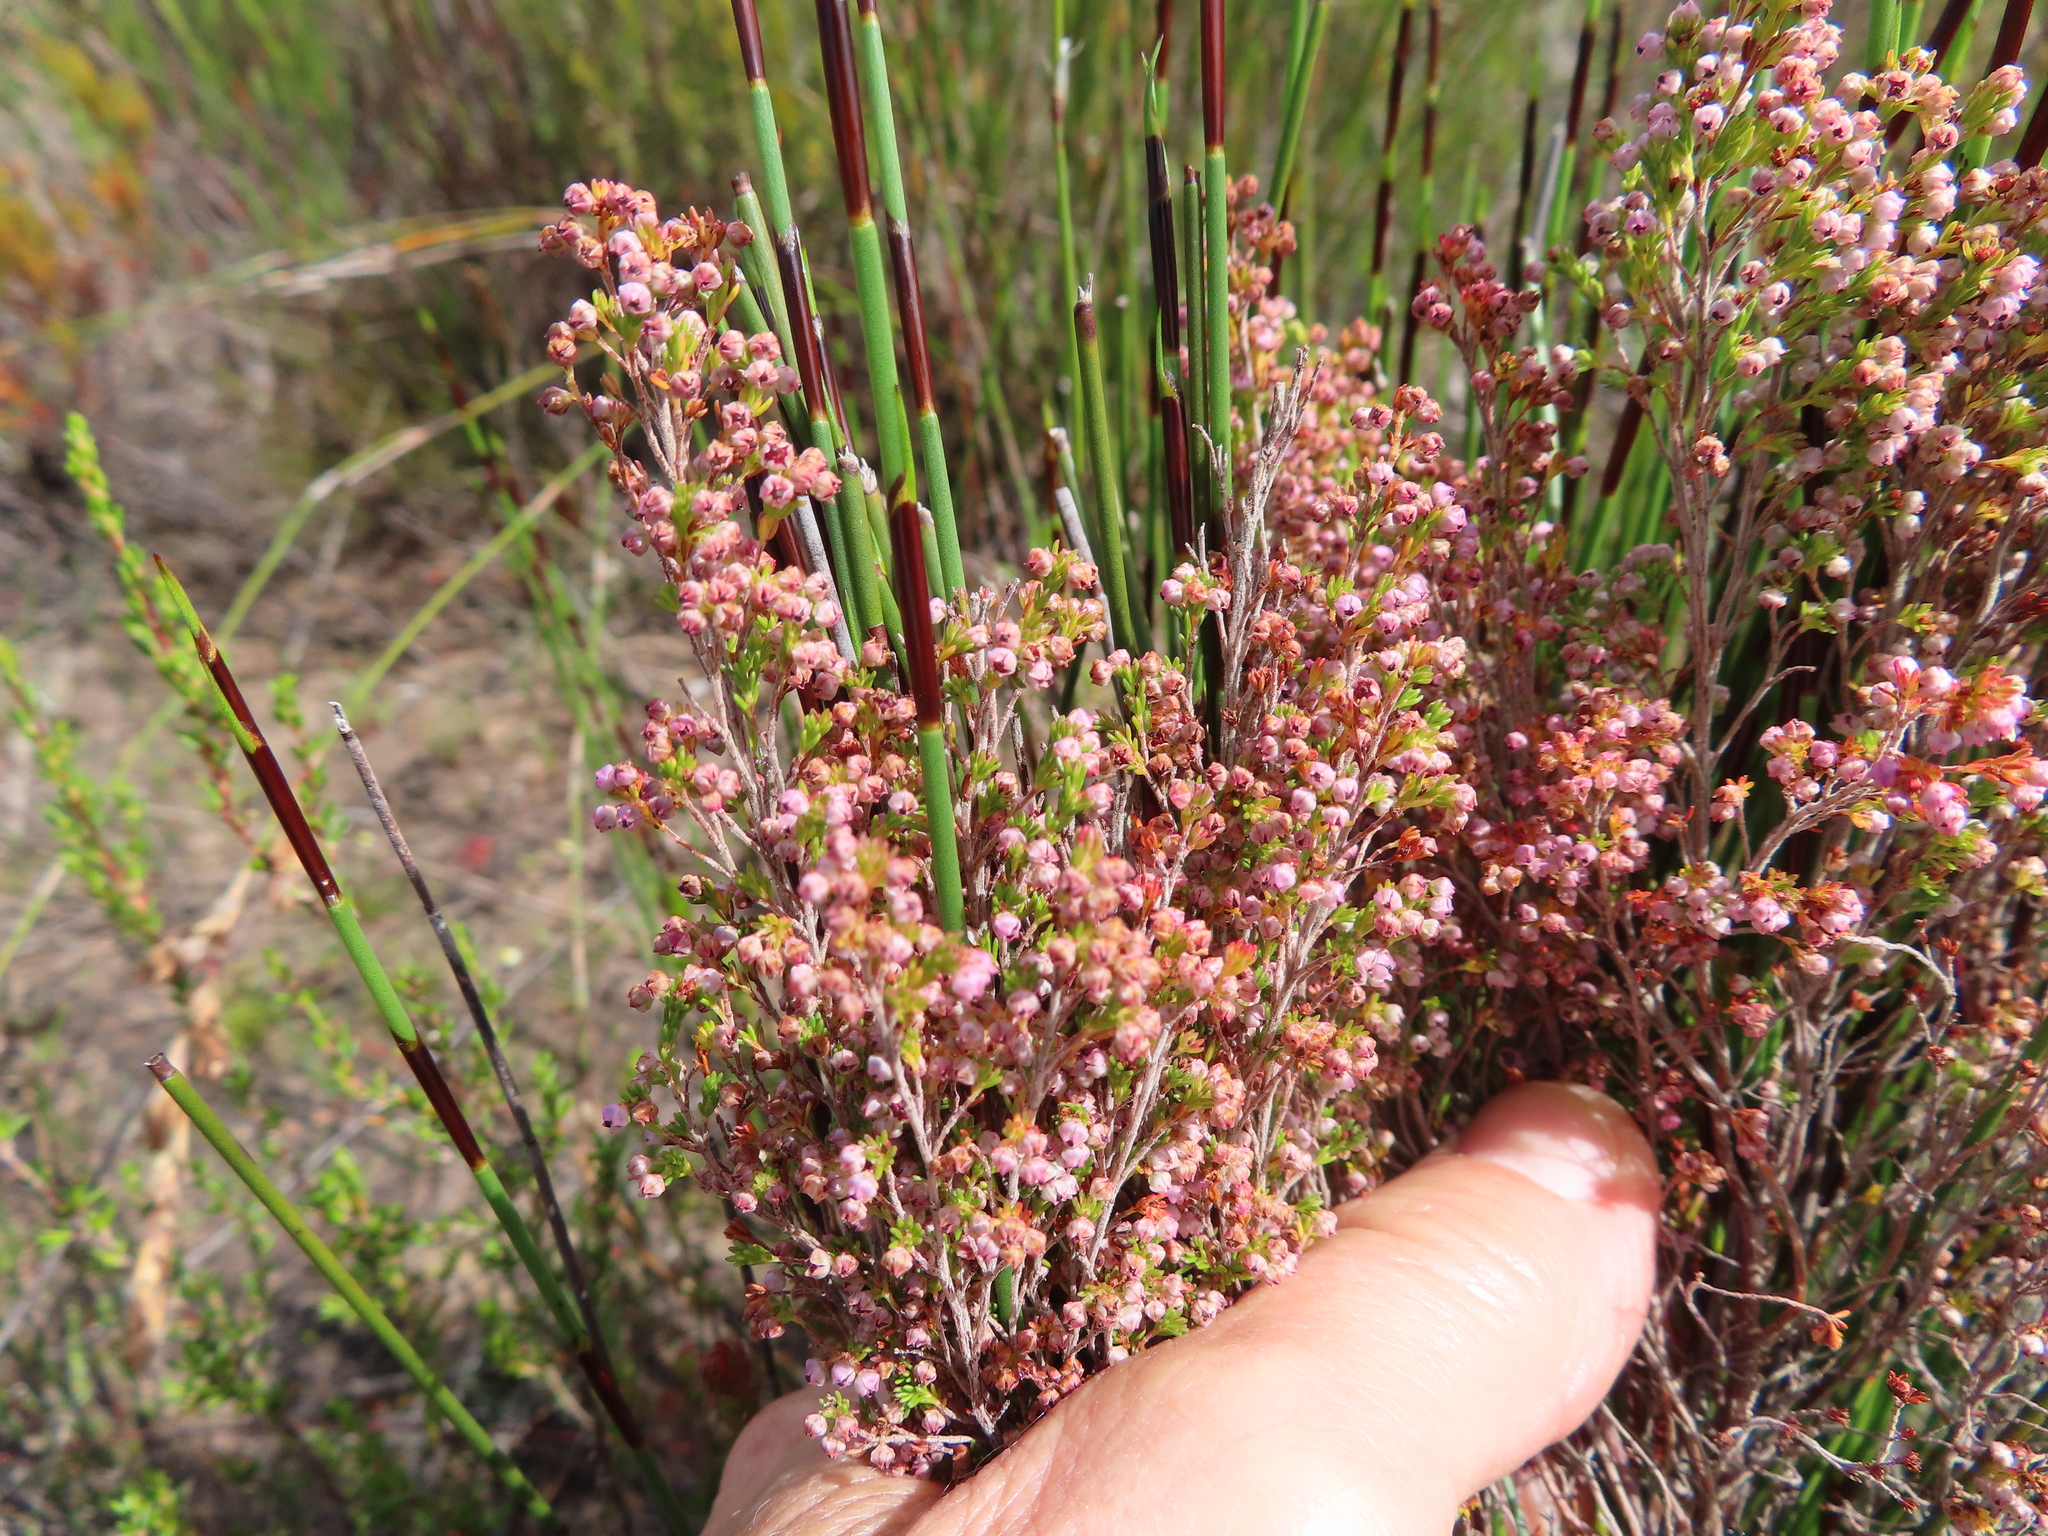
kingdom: Plantae
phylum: Tracheophyta
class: Magnoliopsida
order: Ericales
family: Ericaceae
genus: Erica
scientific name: Erica flexistyla
